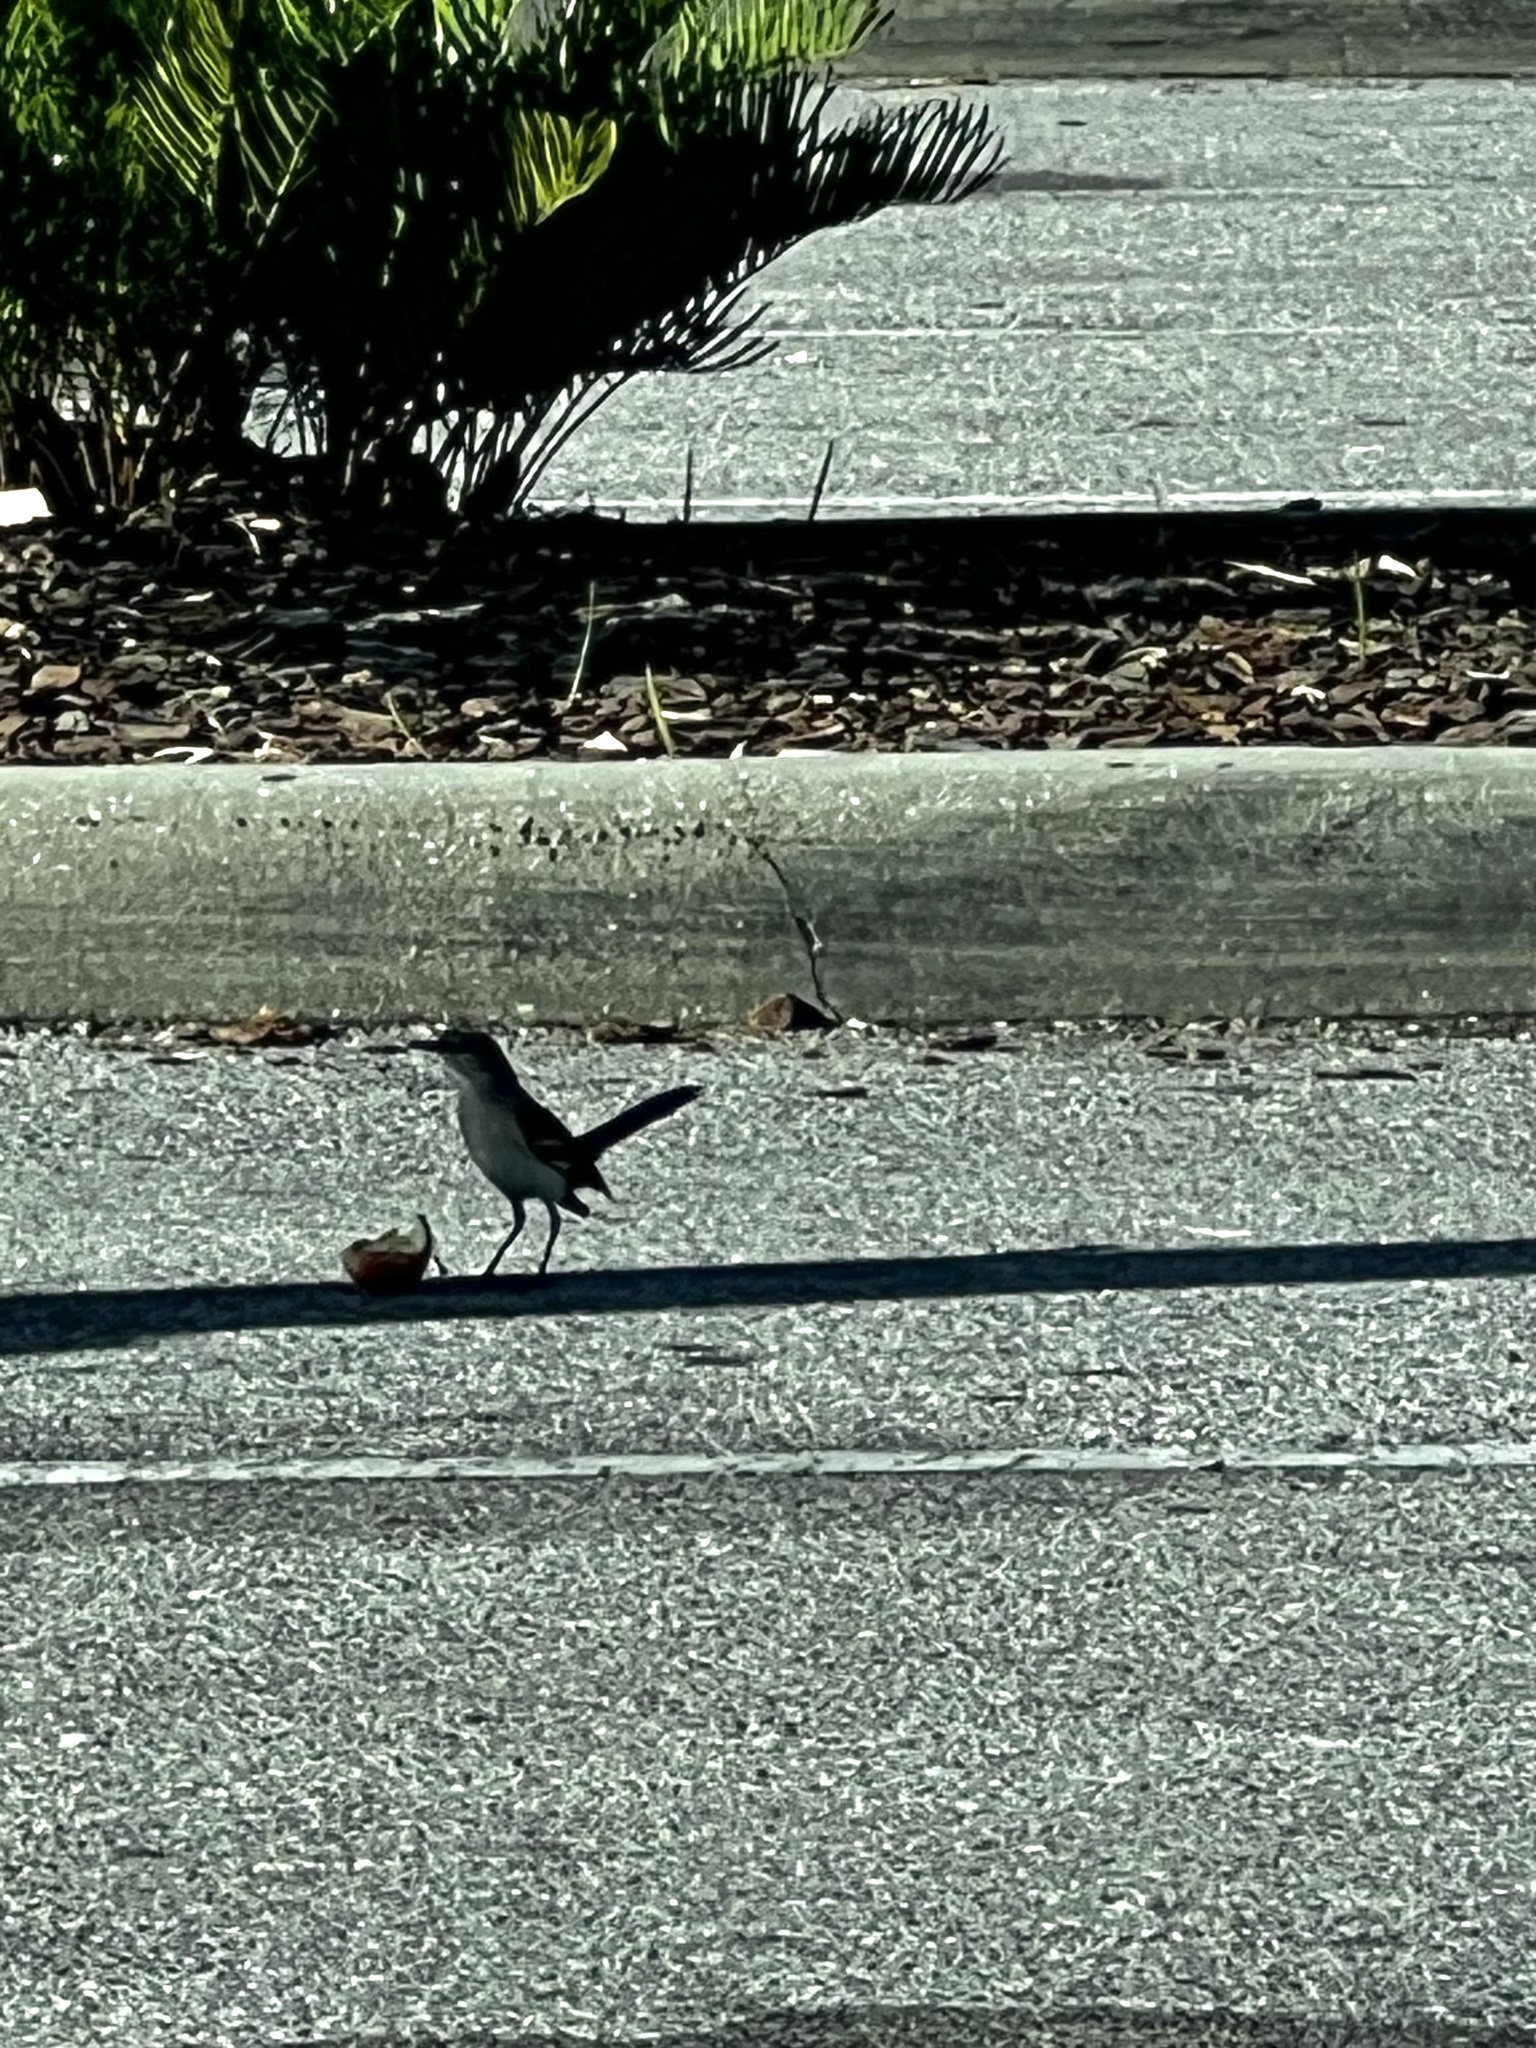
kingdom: Animalia
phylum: Chordata
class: Aves
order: Passeriformes
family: Mimidae
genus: Mimus
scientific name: Mimus polyglottos
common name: Northern mockingbird
